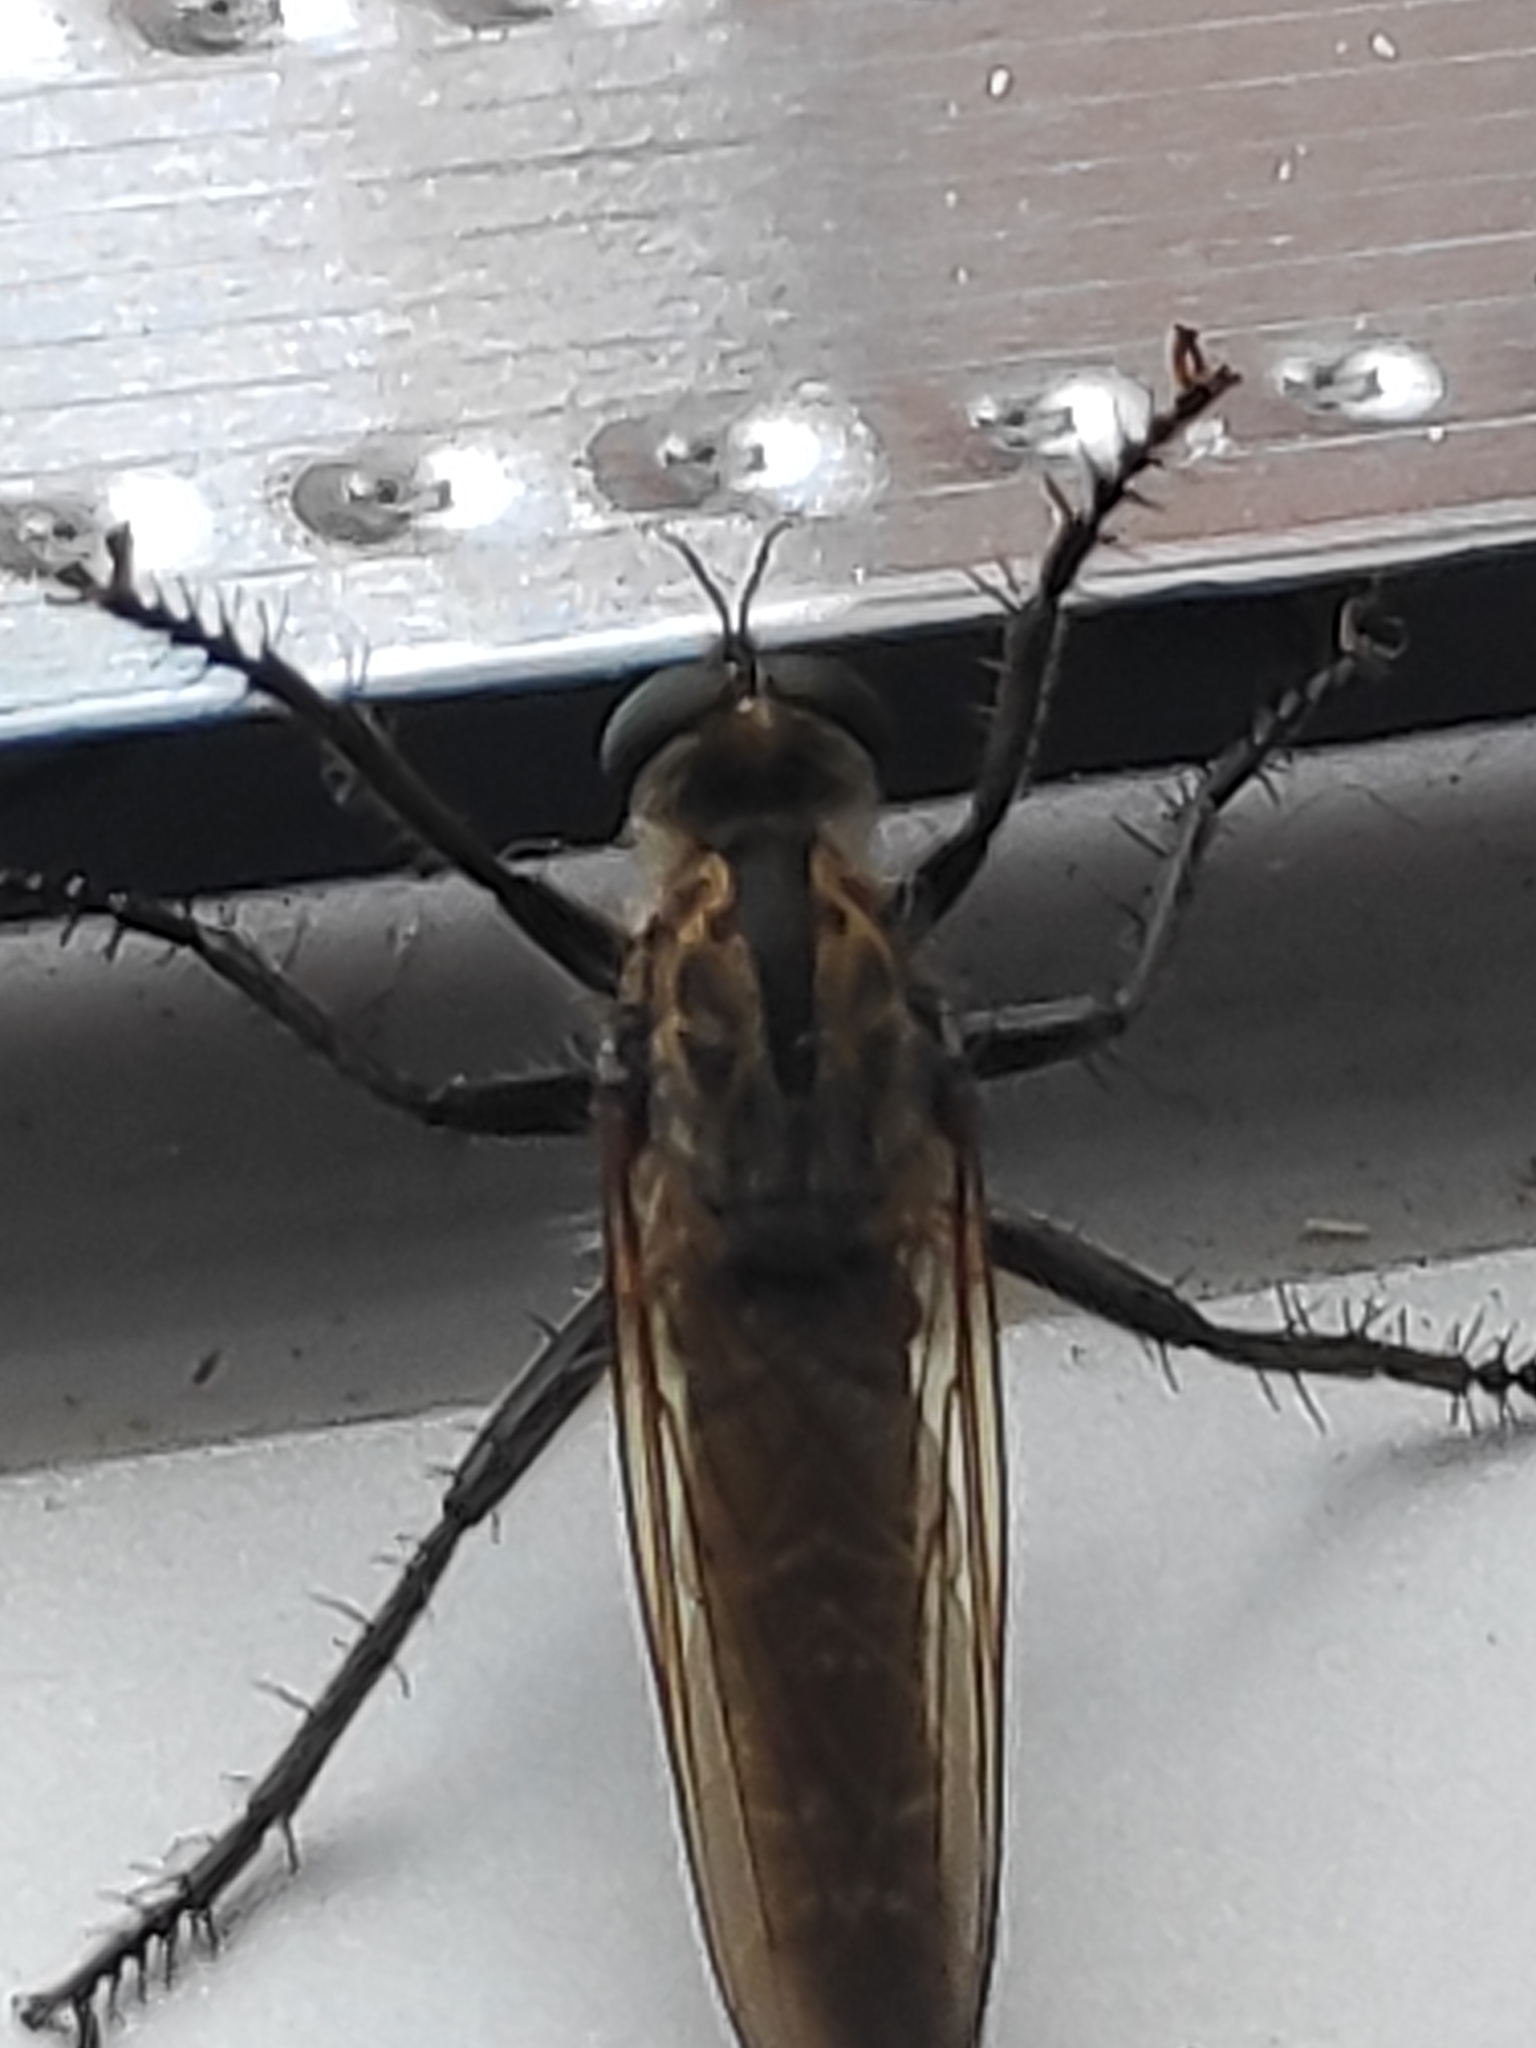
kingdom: Animalia
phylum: Arthropoda
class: Insecta
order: Diptera
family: Asilidae
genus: Eutolmus
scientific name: Eutolmus rufibarbis
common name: Golden-tabbed robberfly
